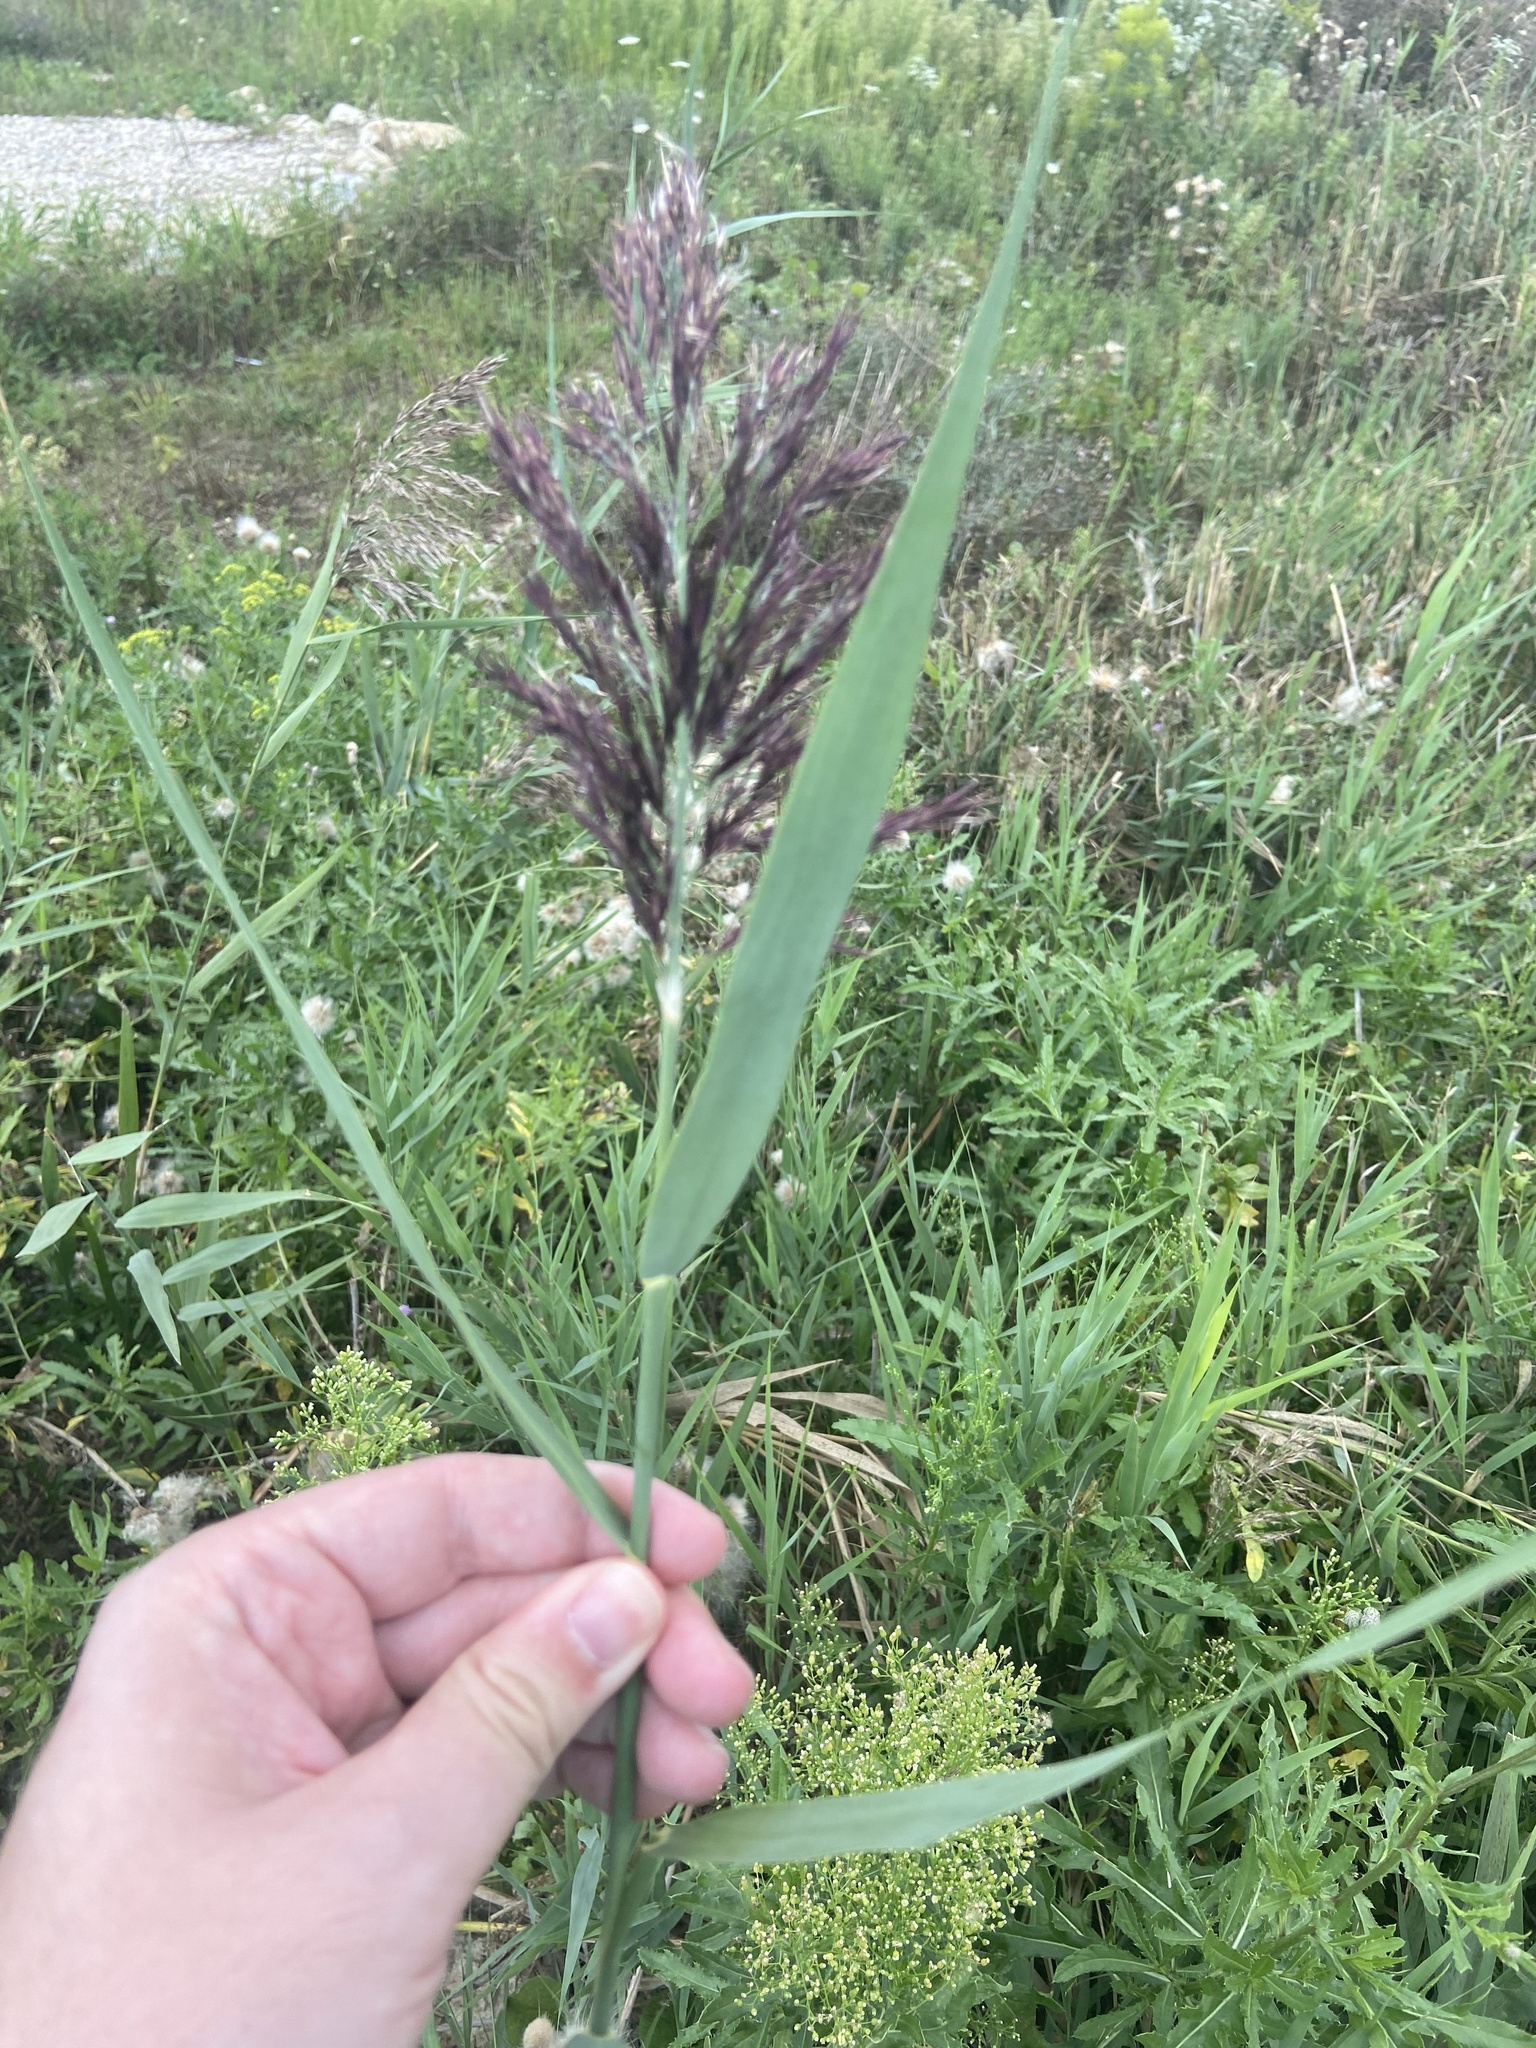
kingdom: Plantae
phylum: Tracheophyta
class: Liliopsida
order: Poales
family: Poaceae
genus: Phragmites
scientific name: Phragmites australis
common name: Common reed
